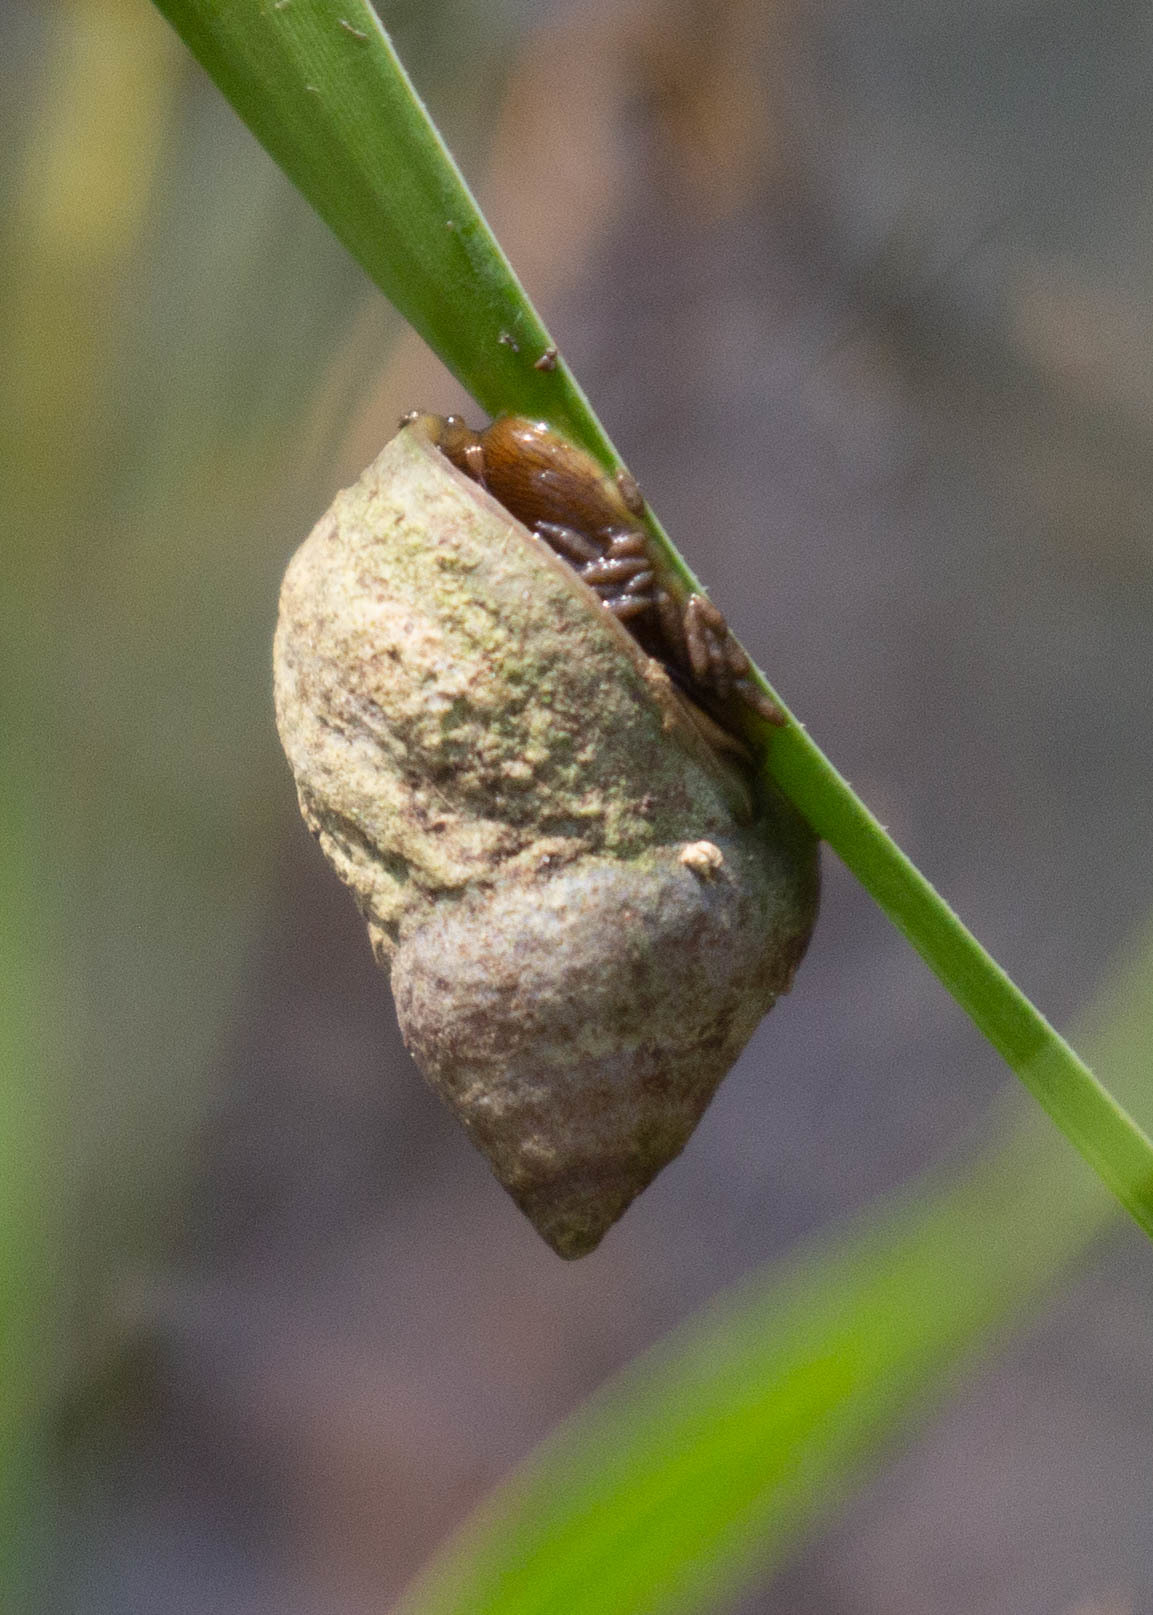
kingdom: Animalia
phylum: Mollusca
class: Gastropoda
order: Littorinimorpha
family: Littorinidae
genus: Littoraria
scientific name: Littoraria irrorata
